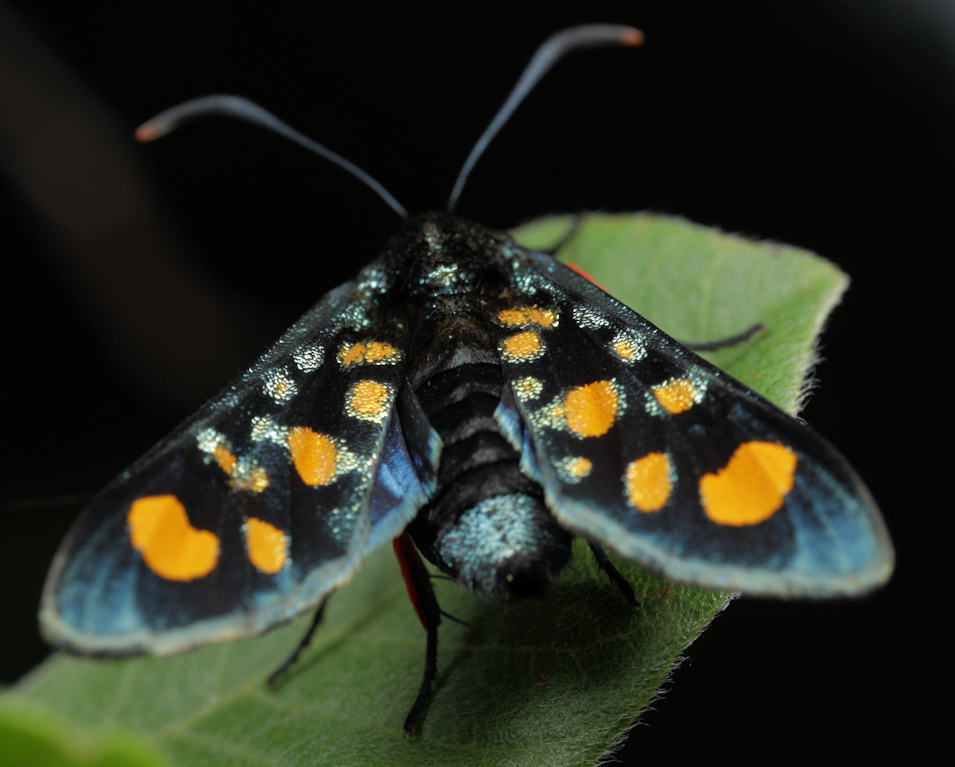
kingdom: Animalia
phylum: Arthropoda
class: Insecta
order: Lepidoptera
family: Thyrididae
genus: Arniocera
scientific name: Arniocera auriguttata
